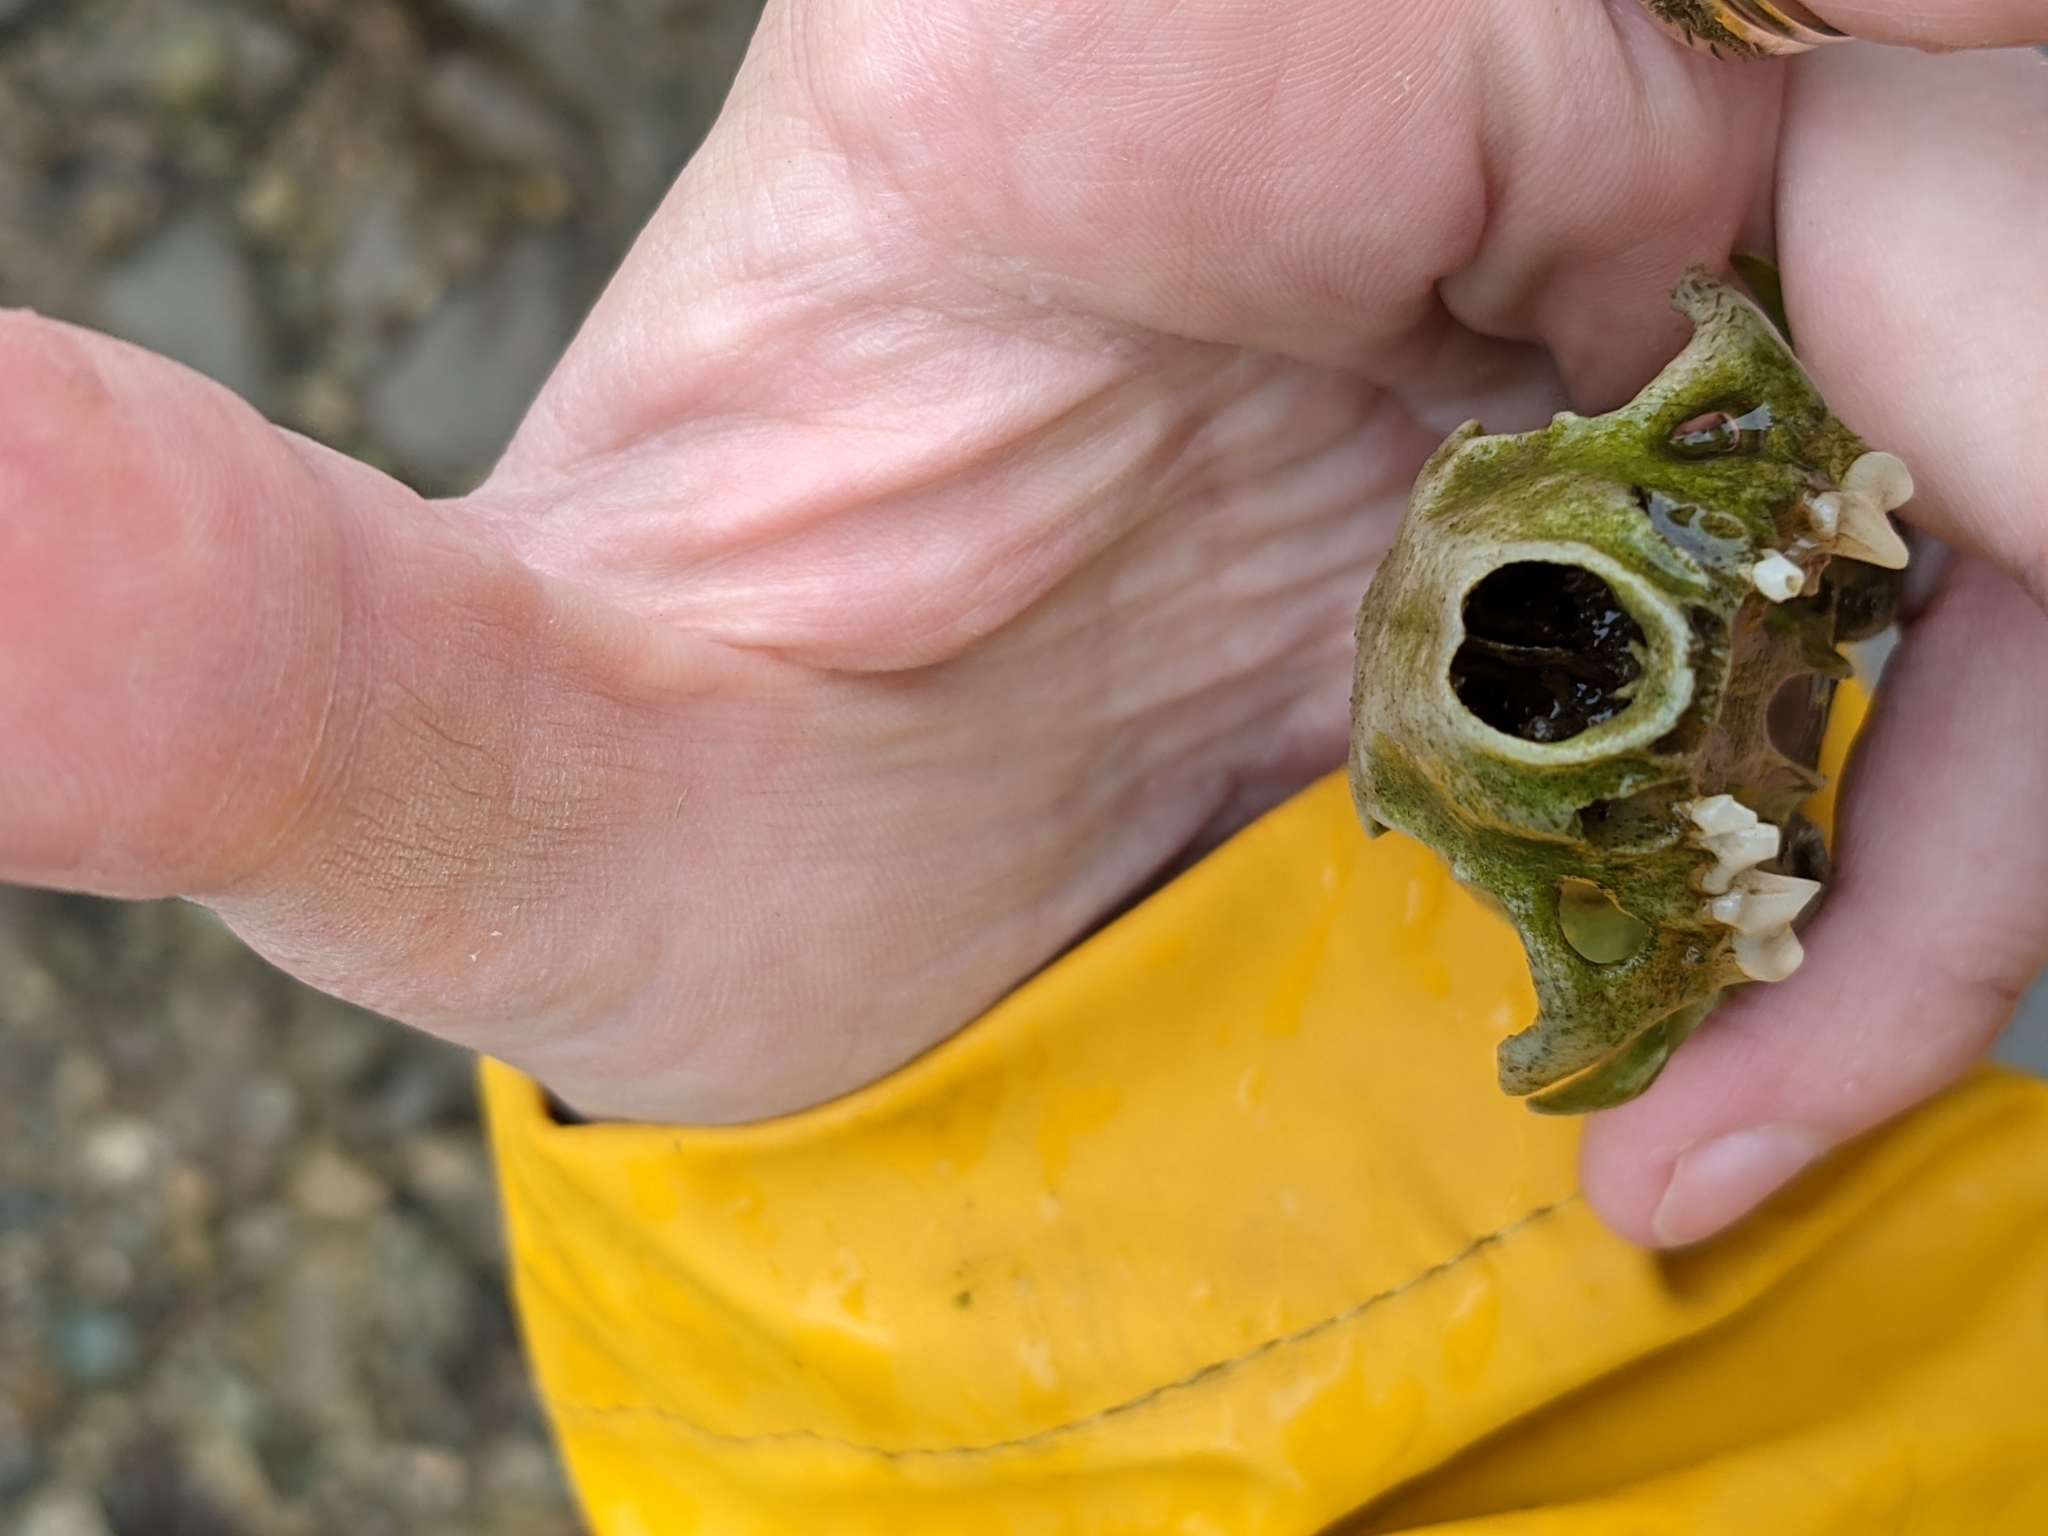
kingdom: Animalia
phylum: Chordata
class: Mammalia
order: Carnivora
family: Mustelidae
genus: Mustela
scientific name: Mustela
